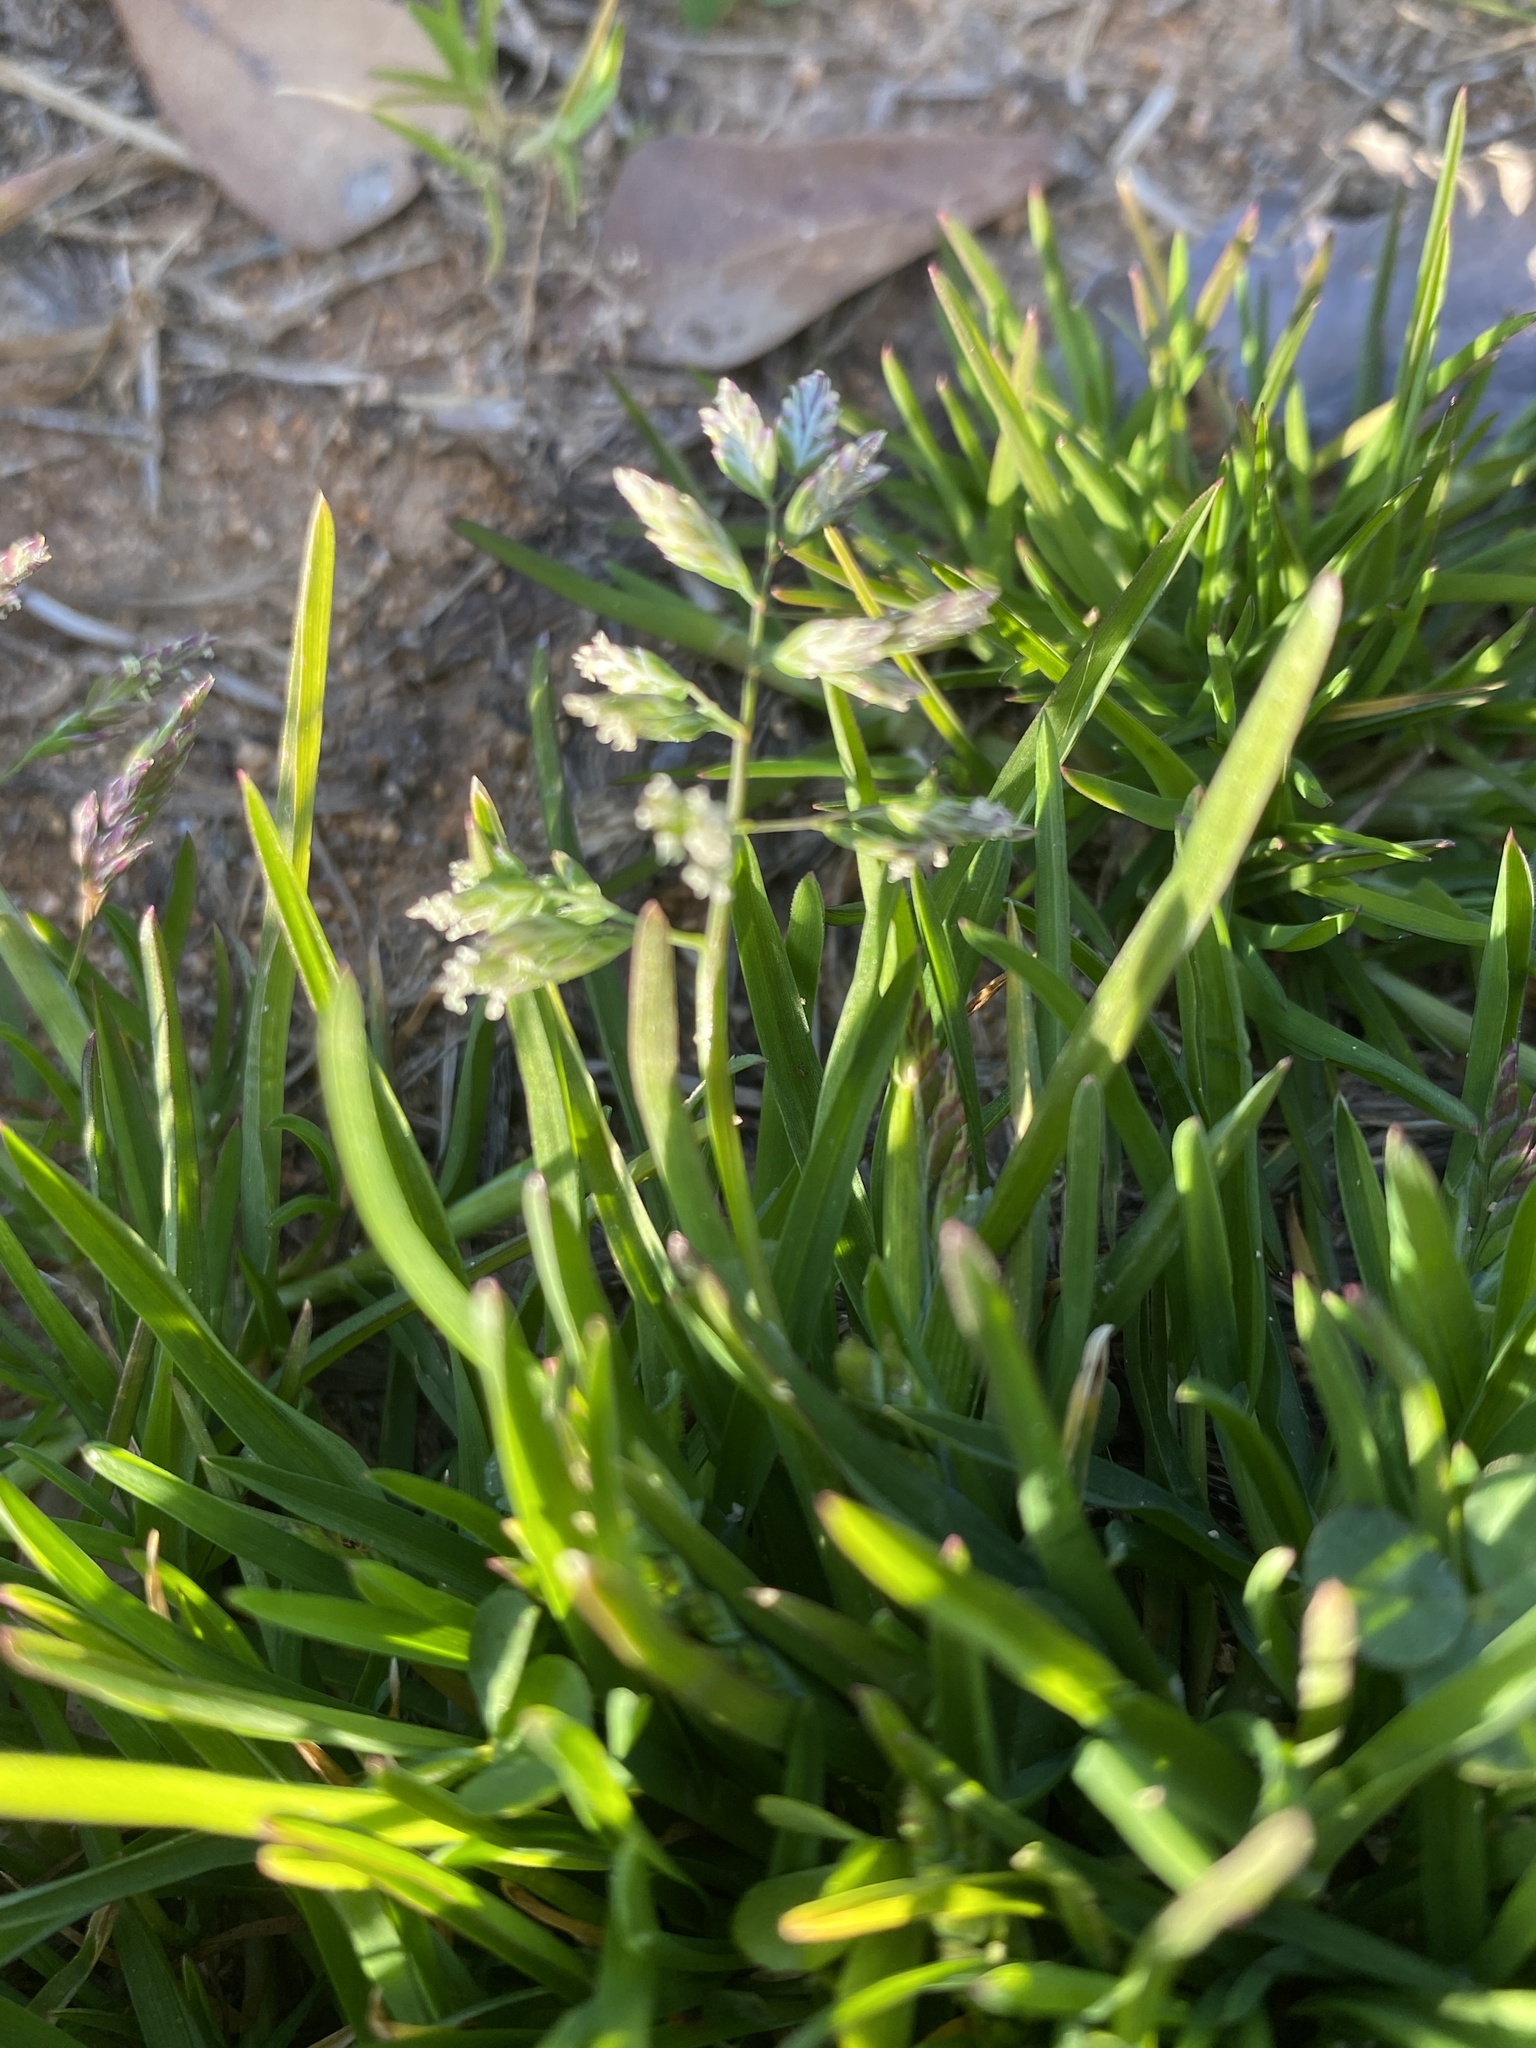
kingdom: Plantae
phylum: Tracheophyta
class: Liliopsida
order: Poales
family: Poaceae
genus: Poa
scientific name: Poa annua
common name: Annual bluegrass
